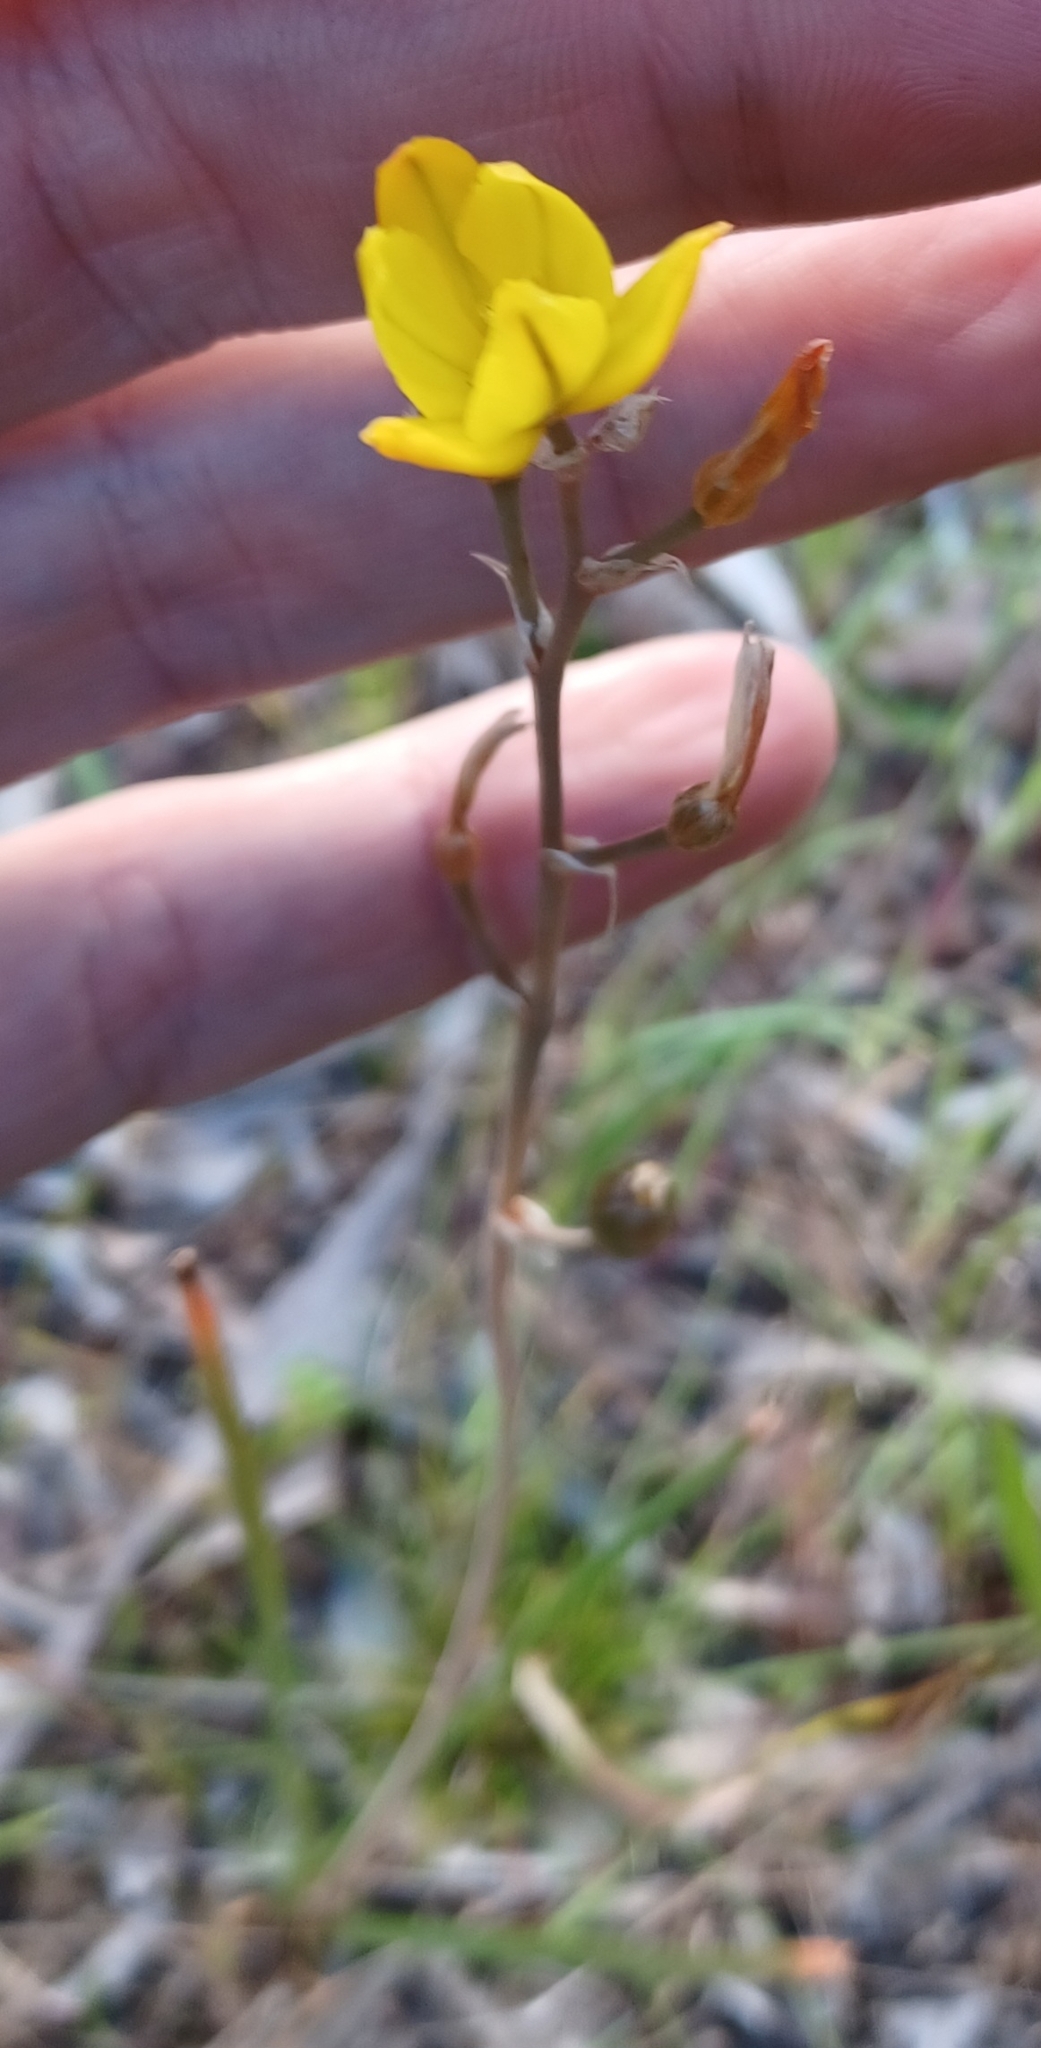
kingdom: Plantae
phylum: Tracheophyta
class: Liliopsida
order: Asparagales
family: Asphodelaceae
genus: Bulbine
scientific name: Bulbine bulbosa
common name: Golden-lily
